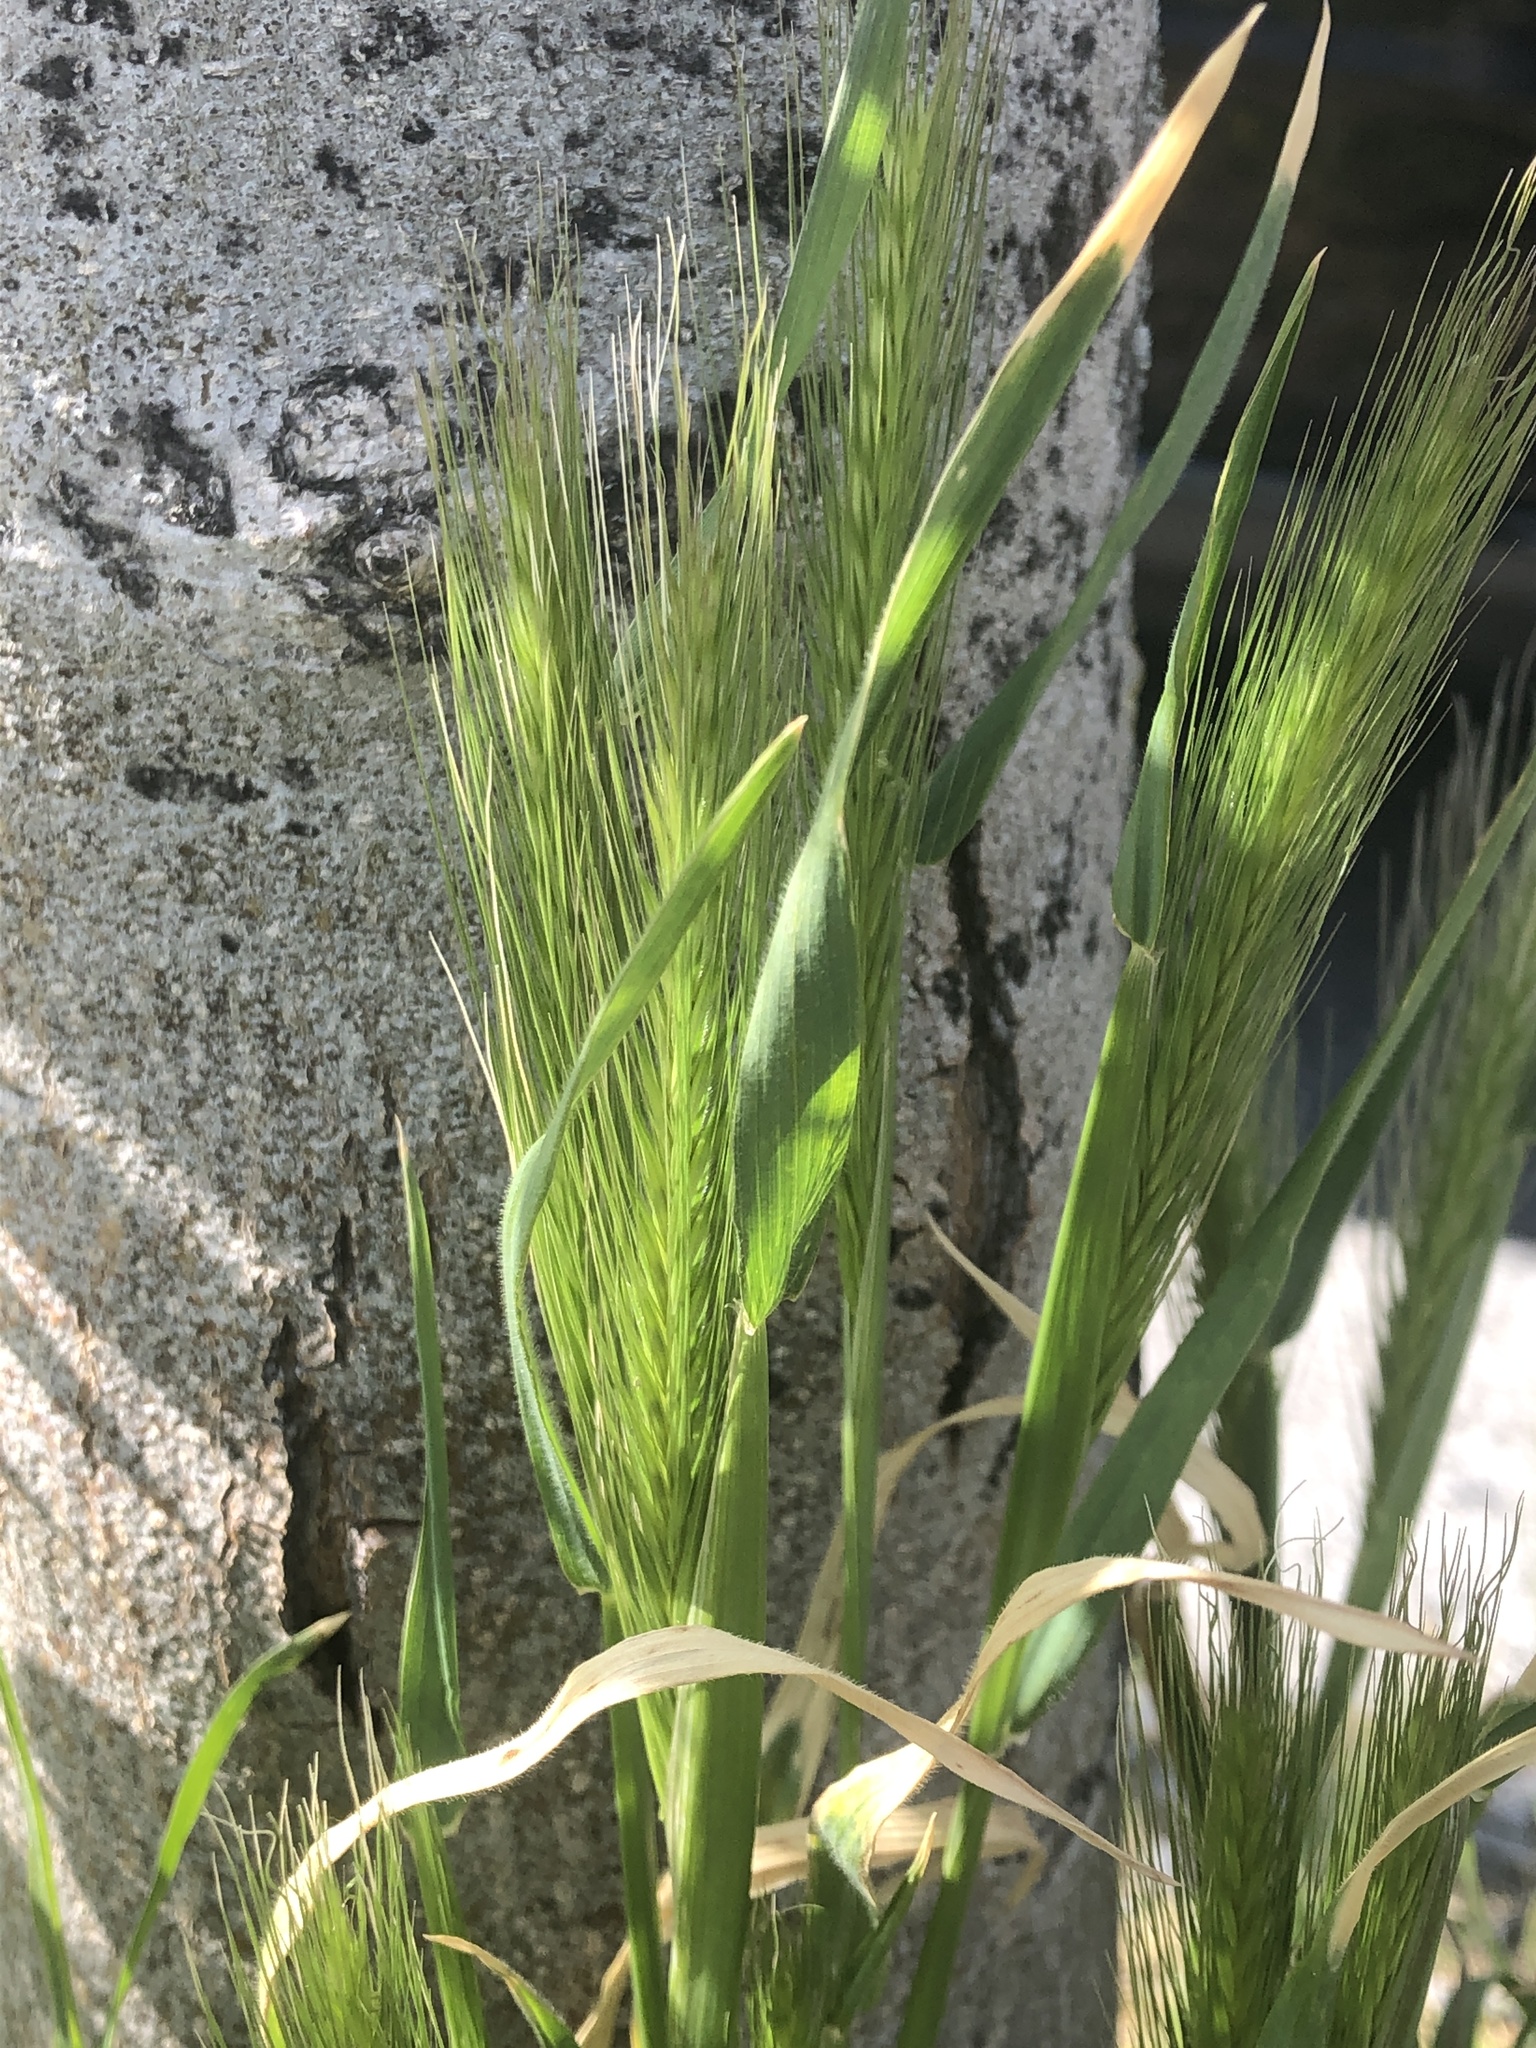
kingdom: Plantae
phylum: Tracheophyta
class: Liliopsida
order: Poales
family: Poaceae
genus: Hordeum
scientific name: Hordeum murinum
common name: Wall barley
